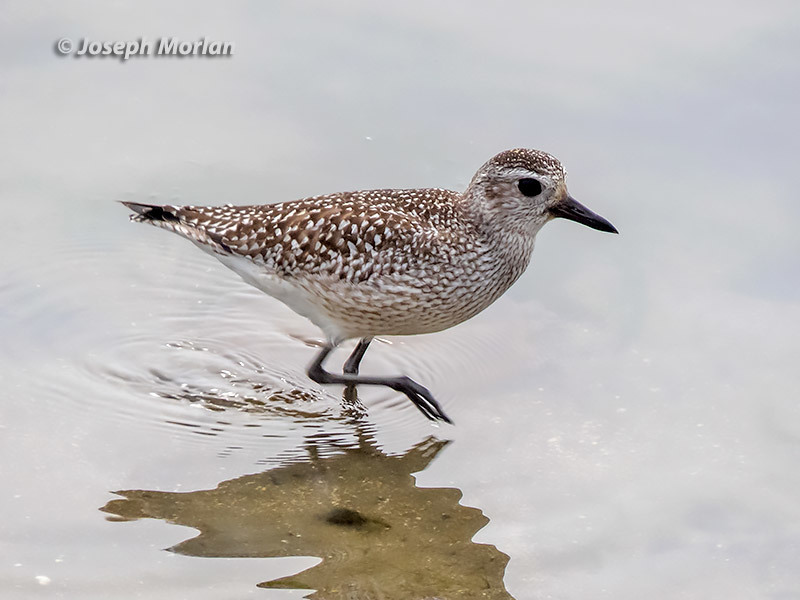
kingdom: Animalia
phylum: Chordata
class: Aves
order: Charadriiformes
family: Charadriidae
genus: Pluvialis
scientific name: Pluvialis squatarola
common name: Grey plover
